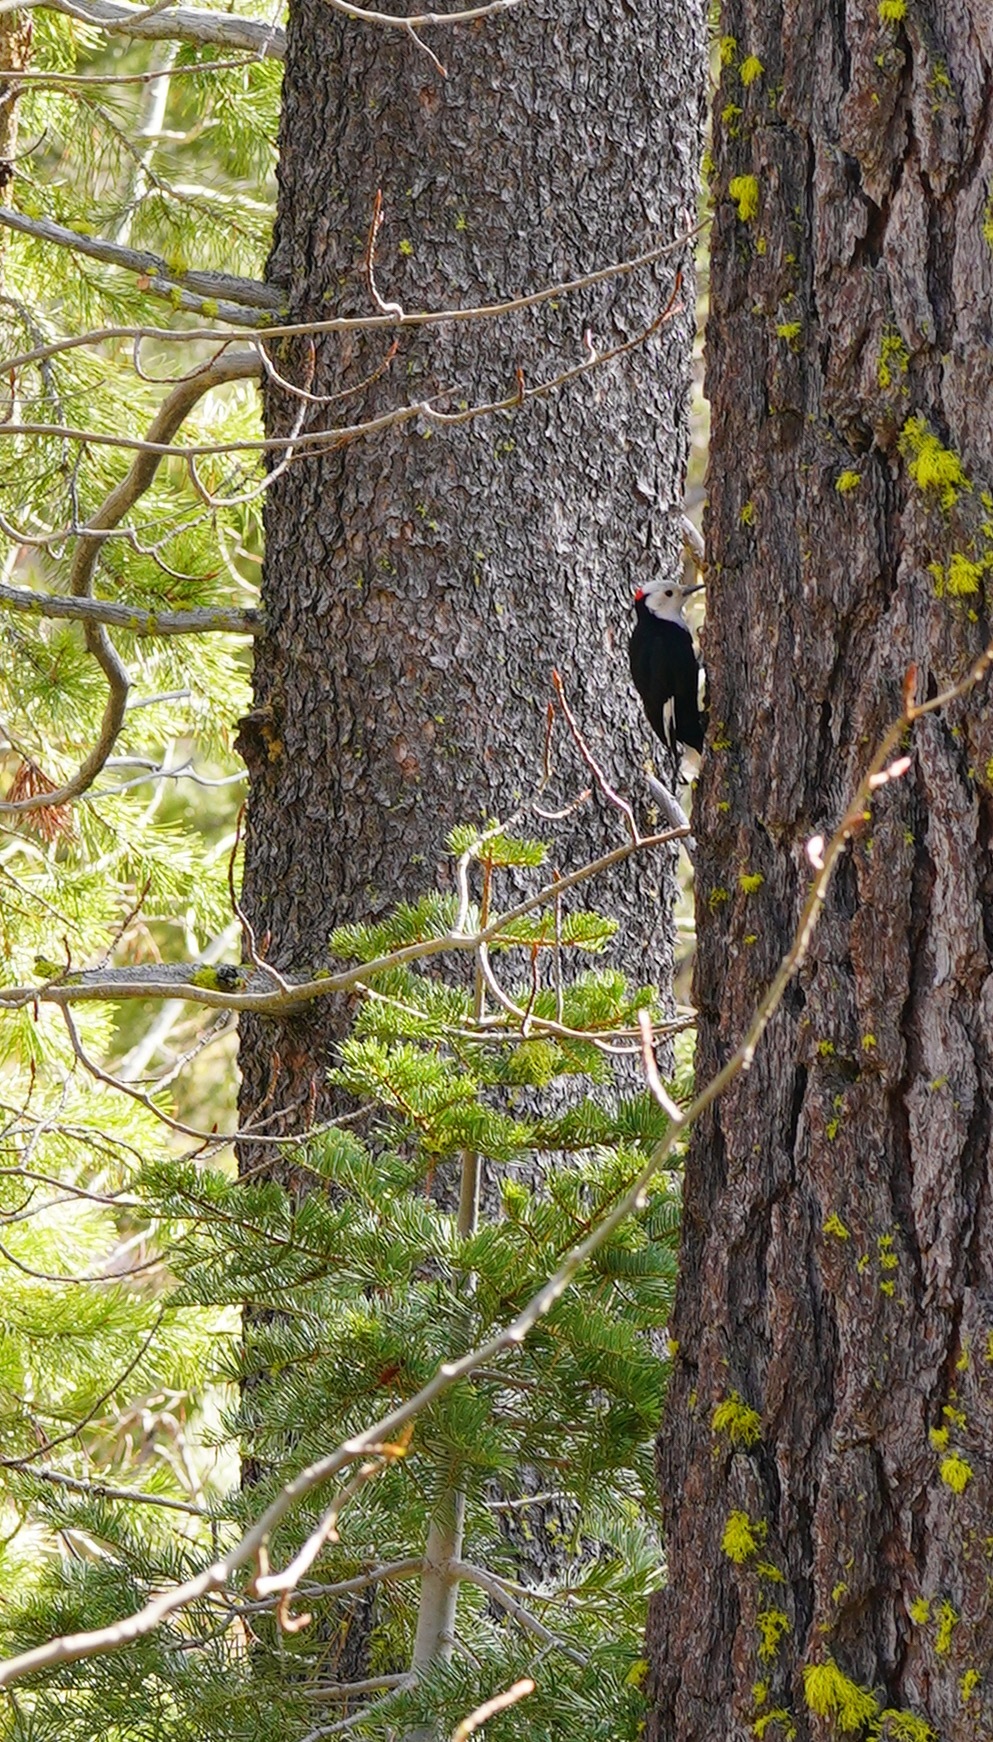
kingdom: Animalia
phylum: Chordata
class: Aves
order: Piciformes
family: Picidae
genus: Leuconotopicus
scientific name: Leuconotopicus albolarvatus
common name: White-headed woodpecker
